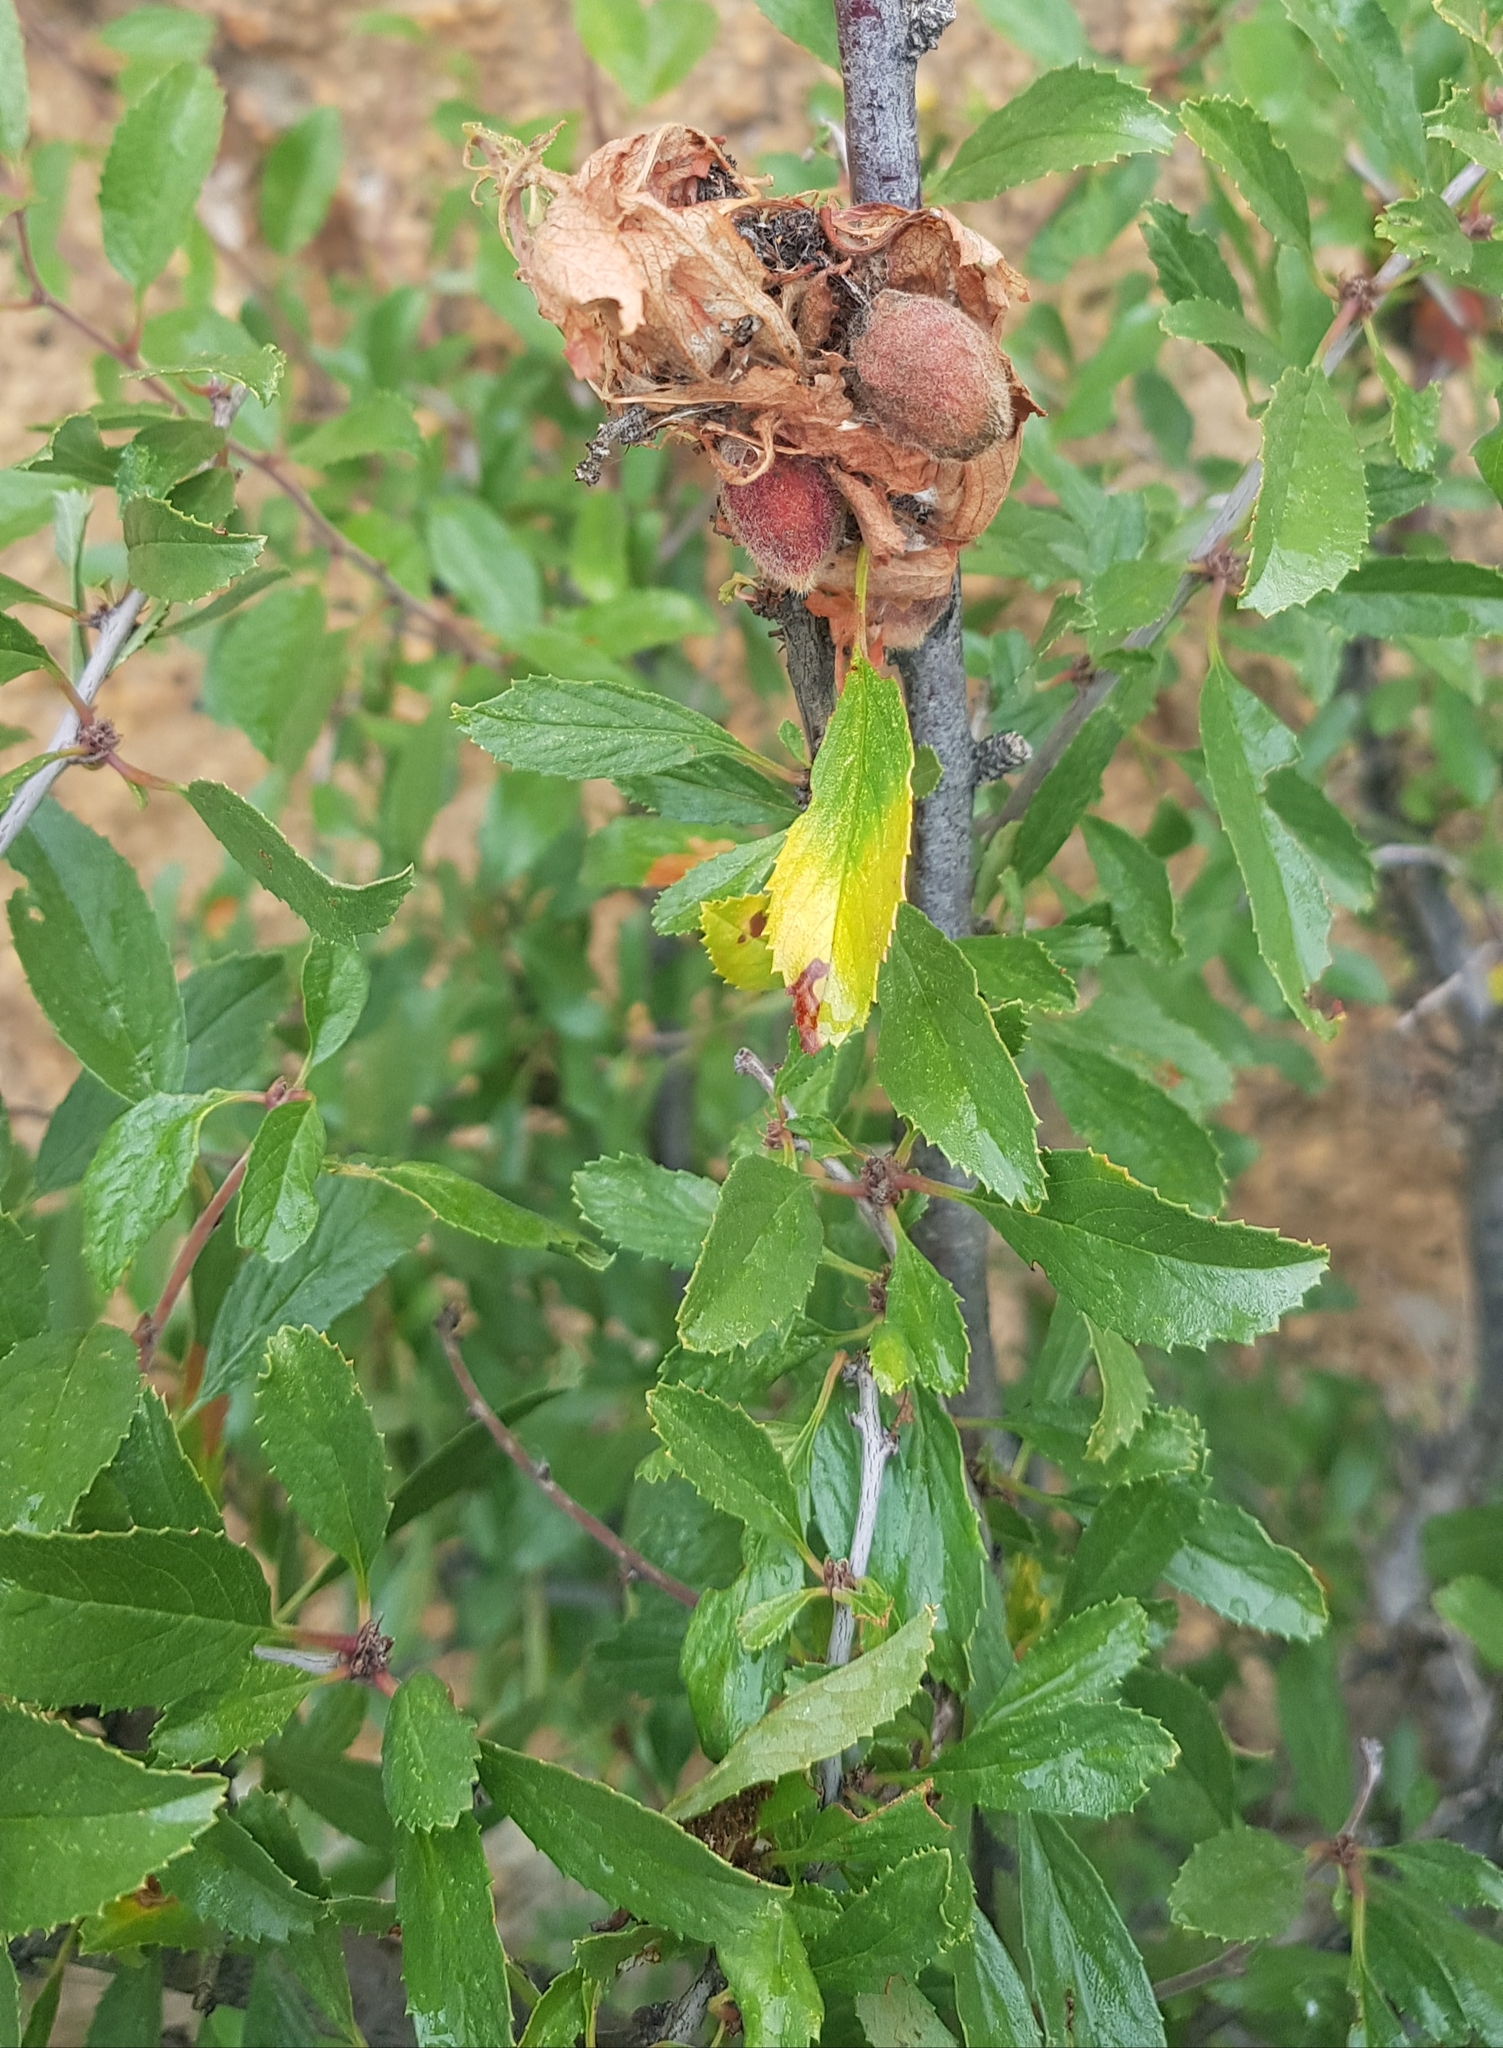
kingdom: Plantae
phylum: Tracheophyta
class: Magnoliopsida
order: Rosales
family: Rosaceae
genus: Prunus
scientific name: Prunus pedunculata
